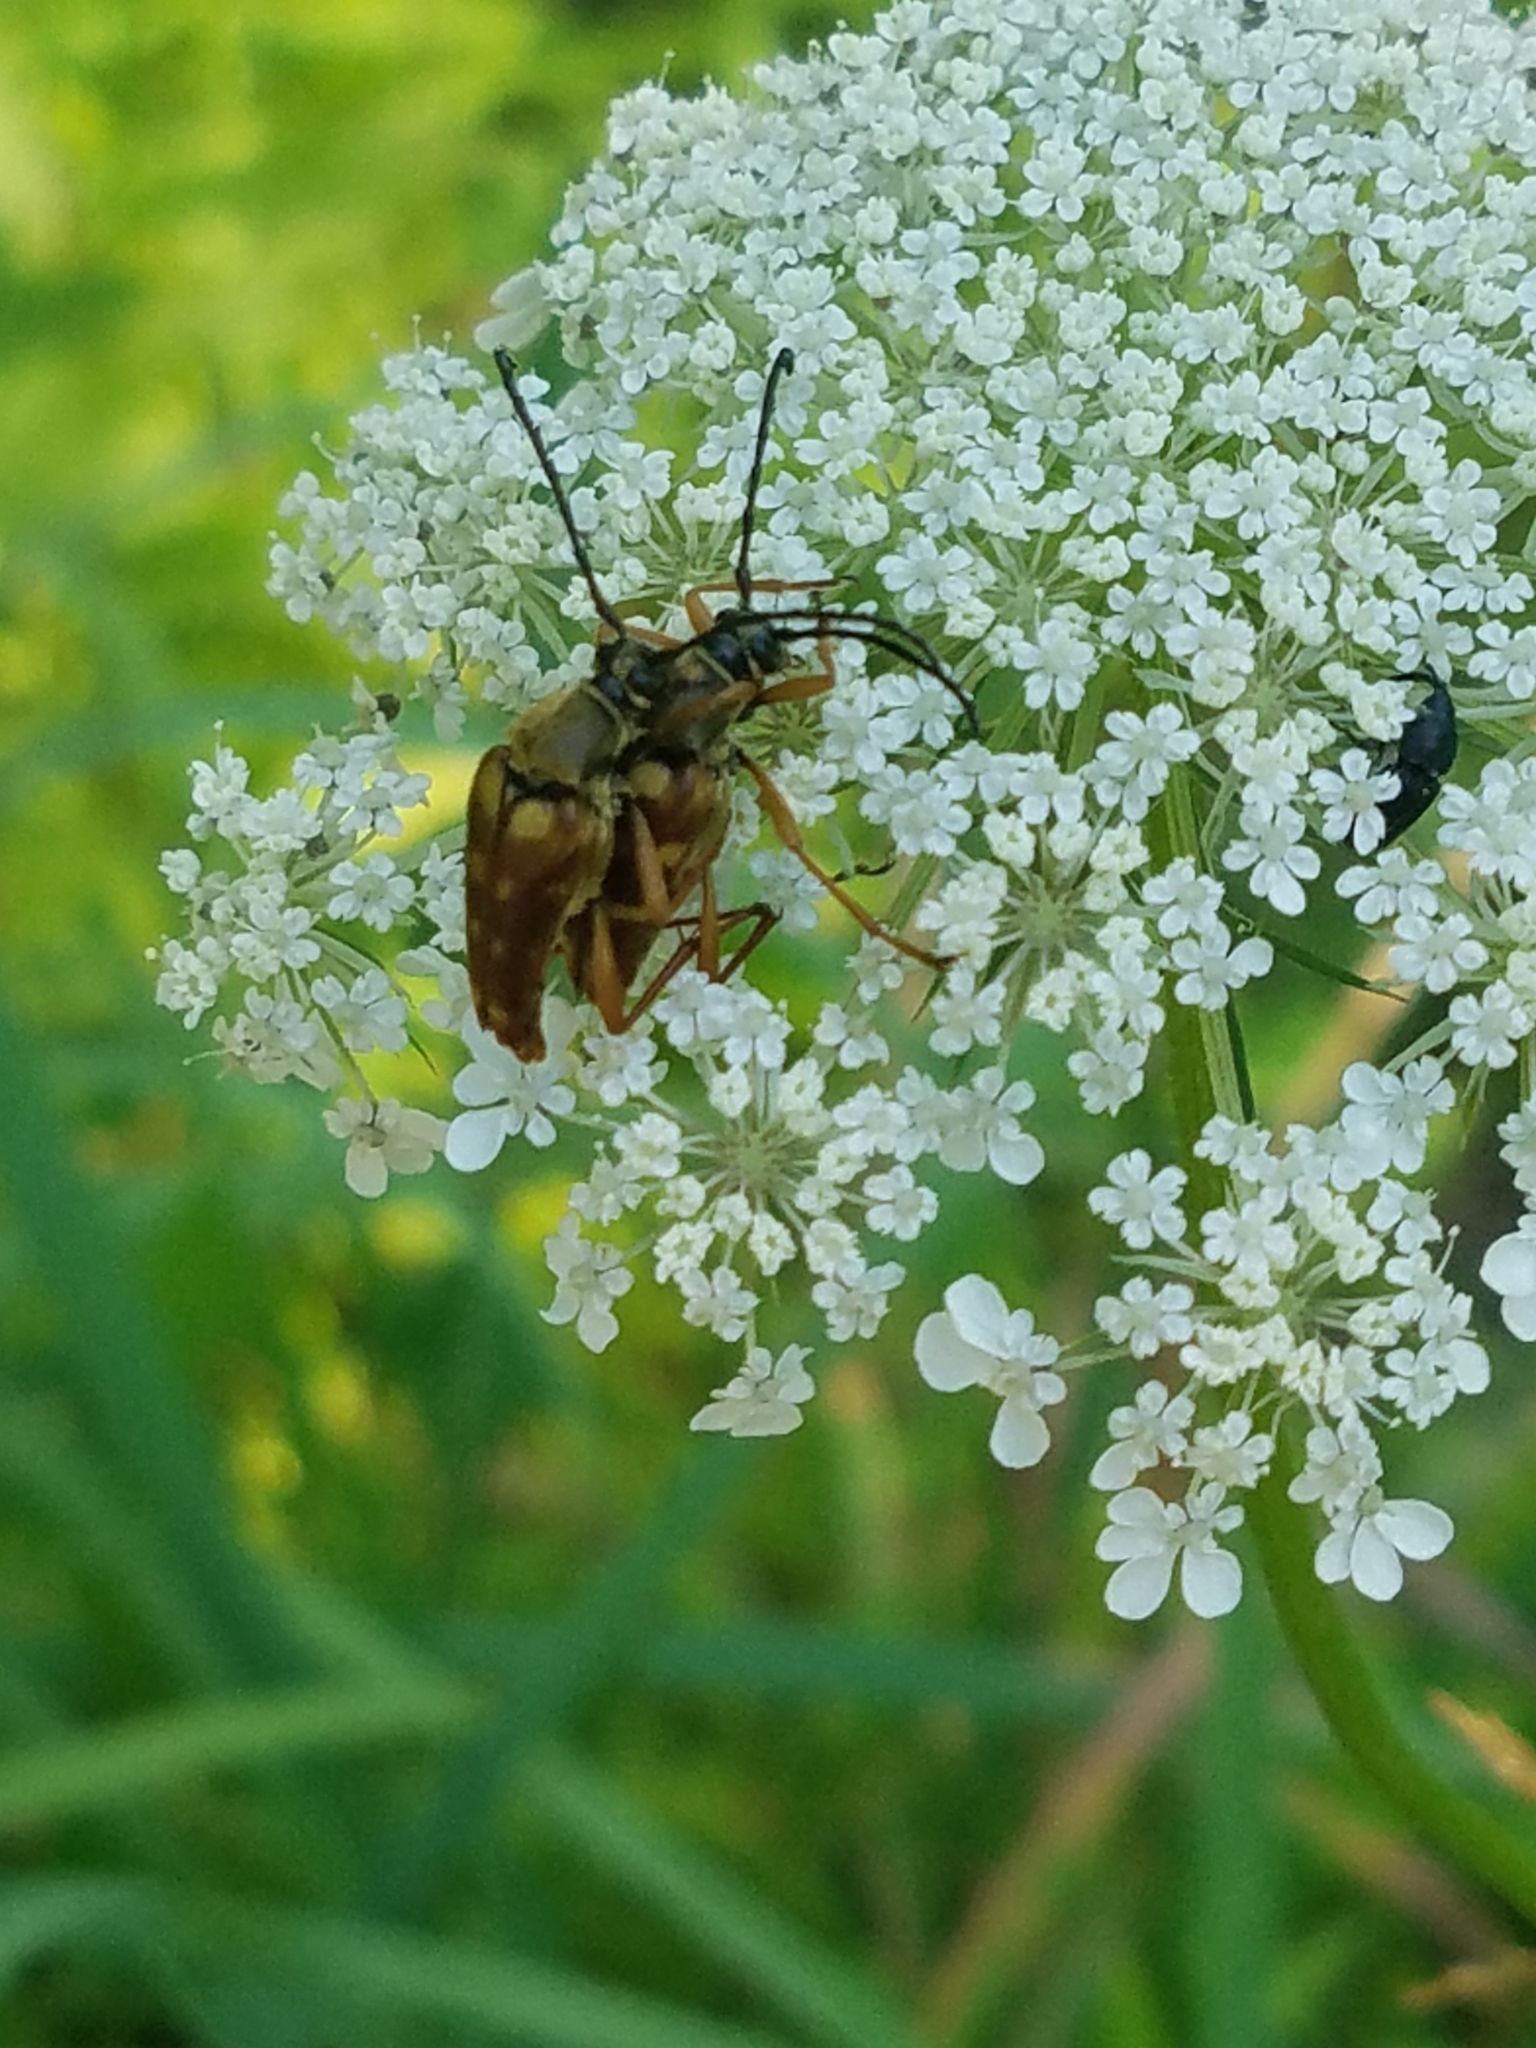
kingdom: Animalia
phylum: Arthropoda
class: Insecta
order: Coleoptera
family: Cerambycidae
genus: Typocerus
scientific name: Typocerus velutinus
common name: Banded longhorn beetle
